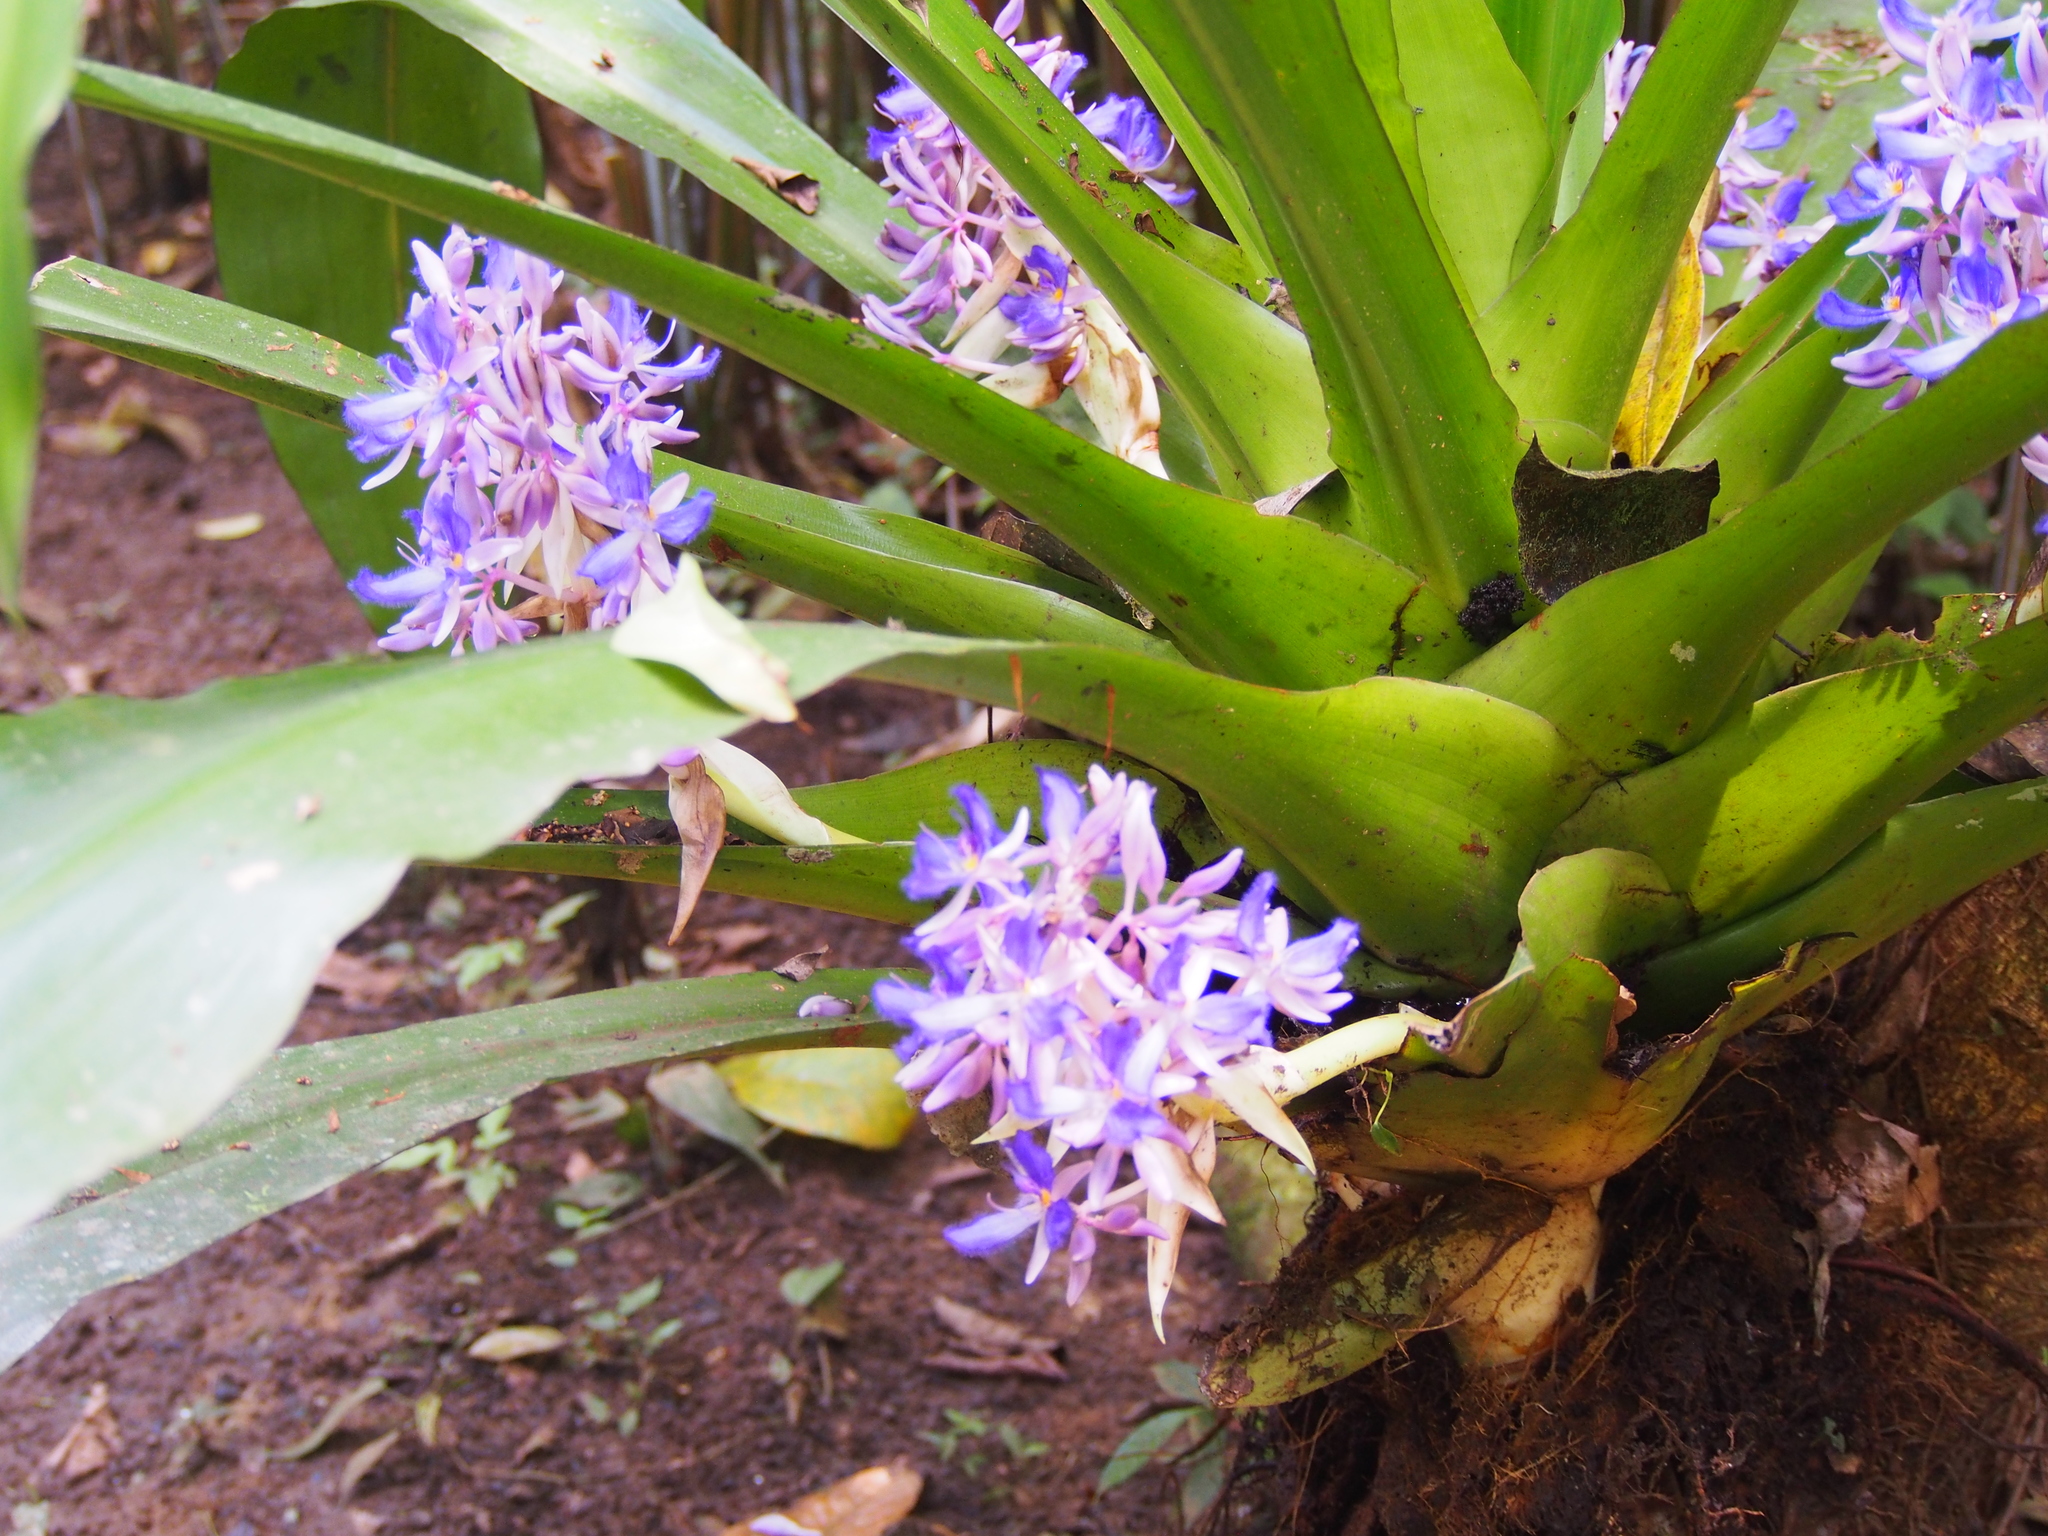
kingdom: Plantae
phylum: Tracheophyta
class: Liliopsida
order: Commelinales
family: Commelinaceae
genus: Cochliostema
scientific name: Cochliostema odoratissimum
